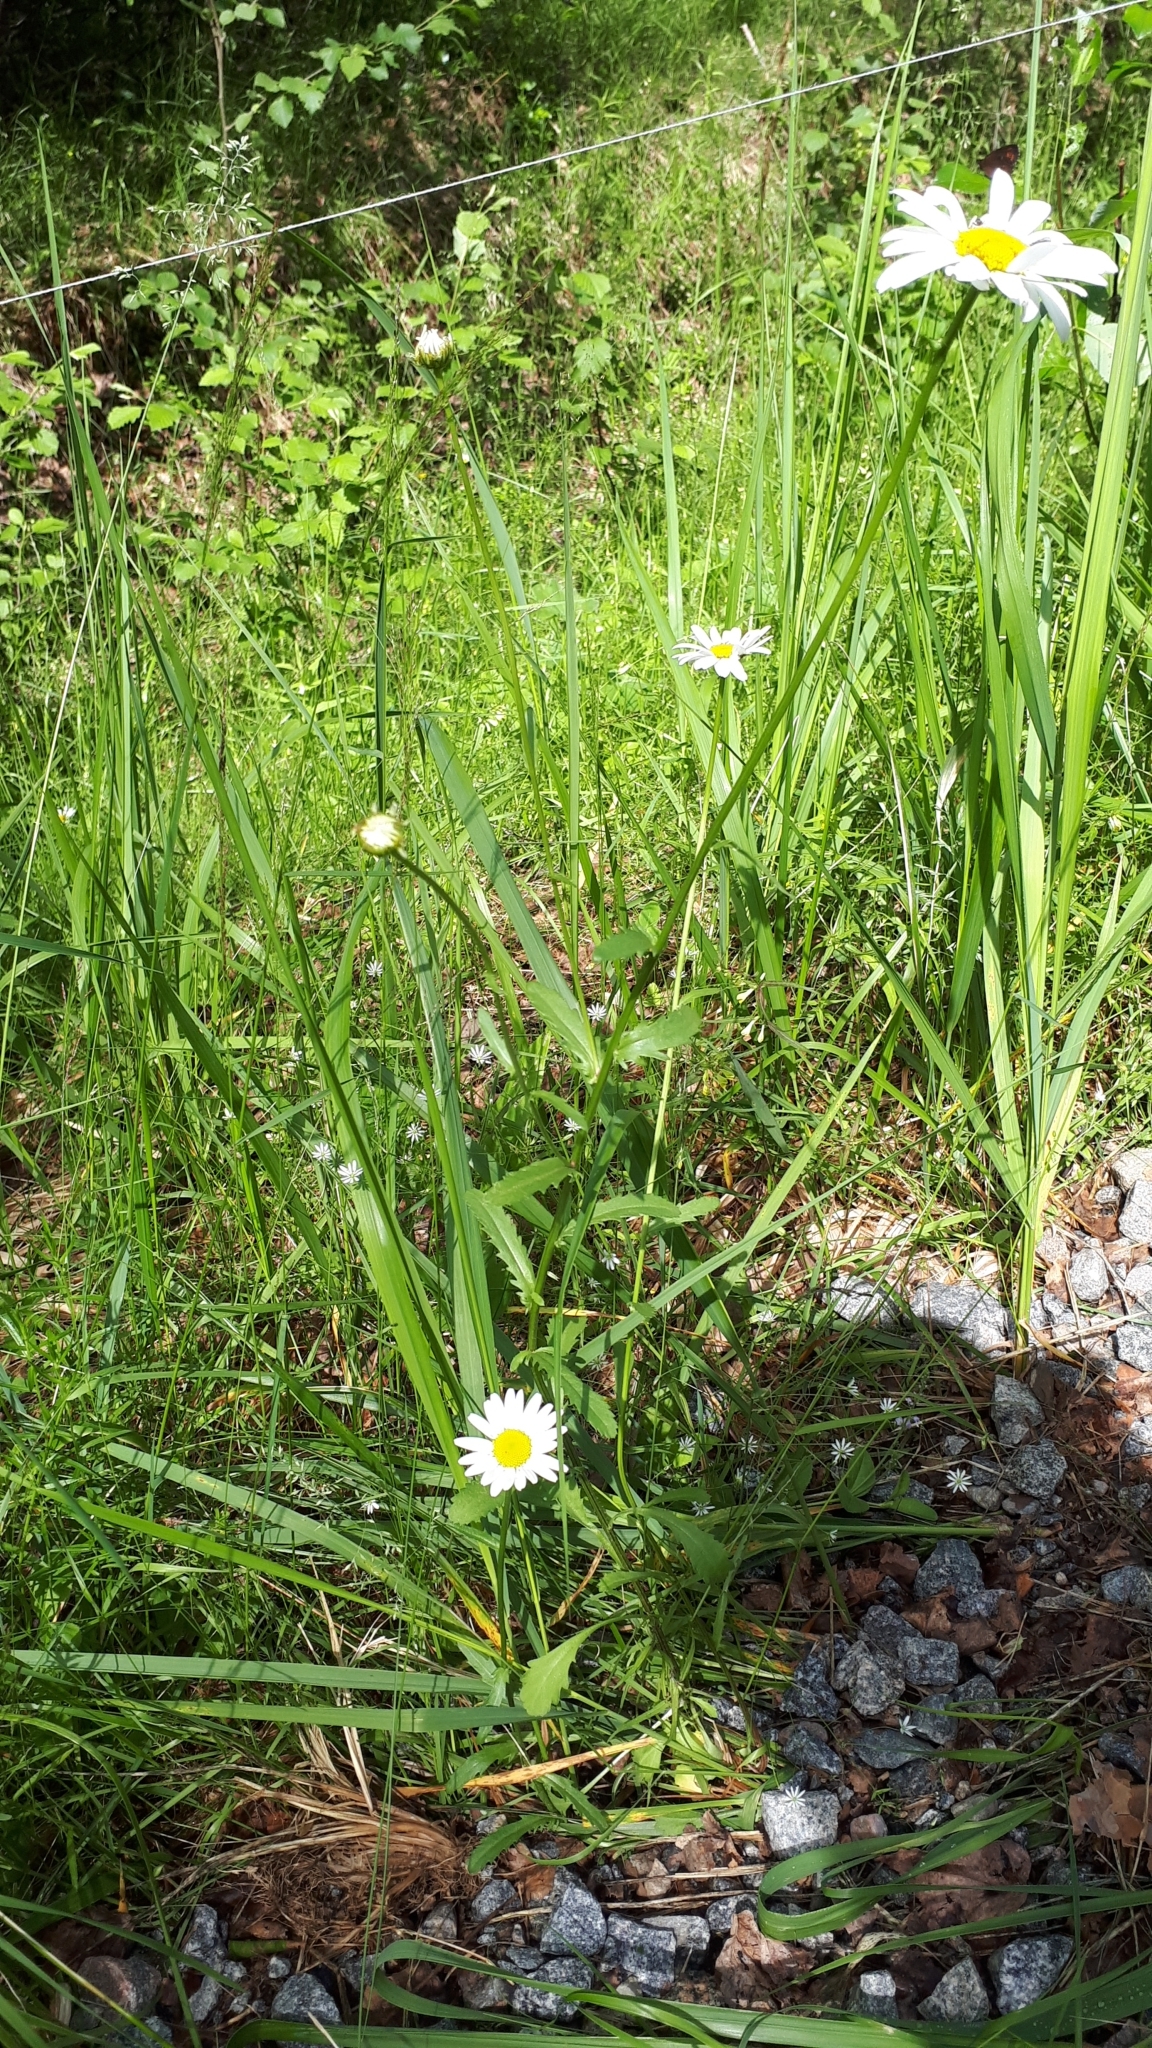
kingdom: Plantae
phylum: Tracheophyta
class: Magnoliopsida
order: Asterales
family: Asteraceae
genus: Leucanthemum
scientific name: Leucanthemum vulgare
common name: Oxeye daisy
